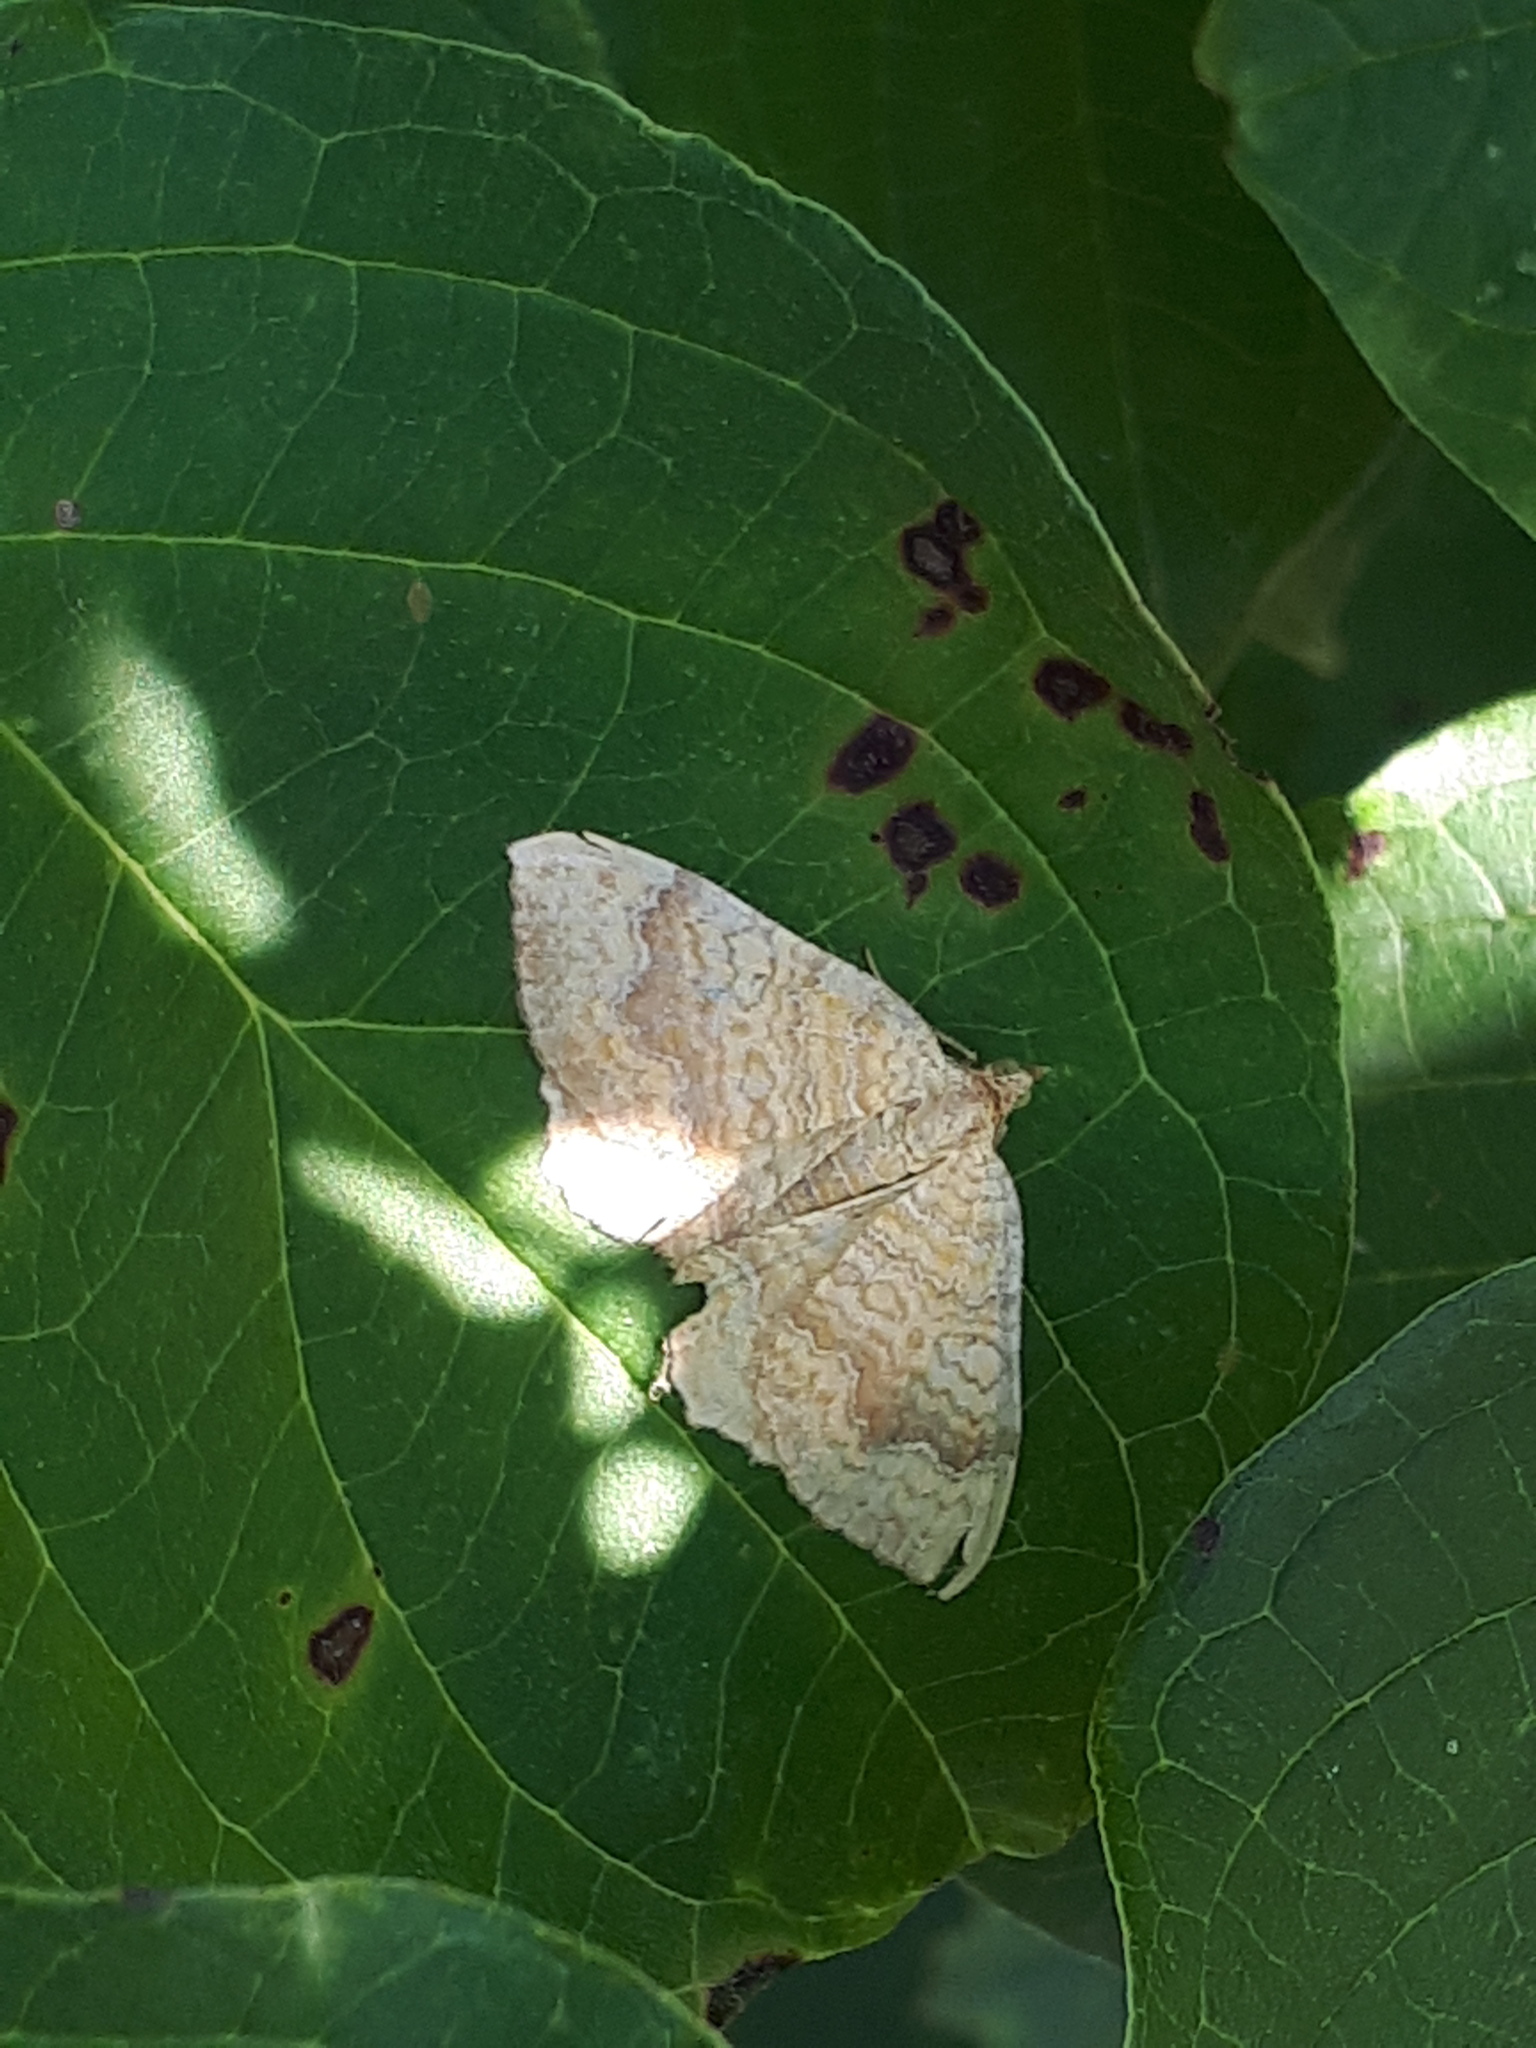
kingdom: Animalia
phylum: Arthropoda
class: Insecta
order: Lepidoptera
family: Geometridae
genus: Camptogramma
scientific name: Camptogramma bilineata
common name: Yellow shell
